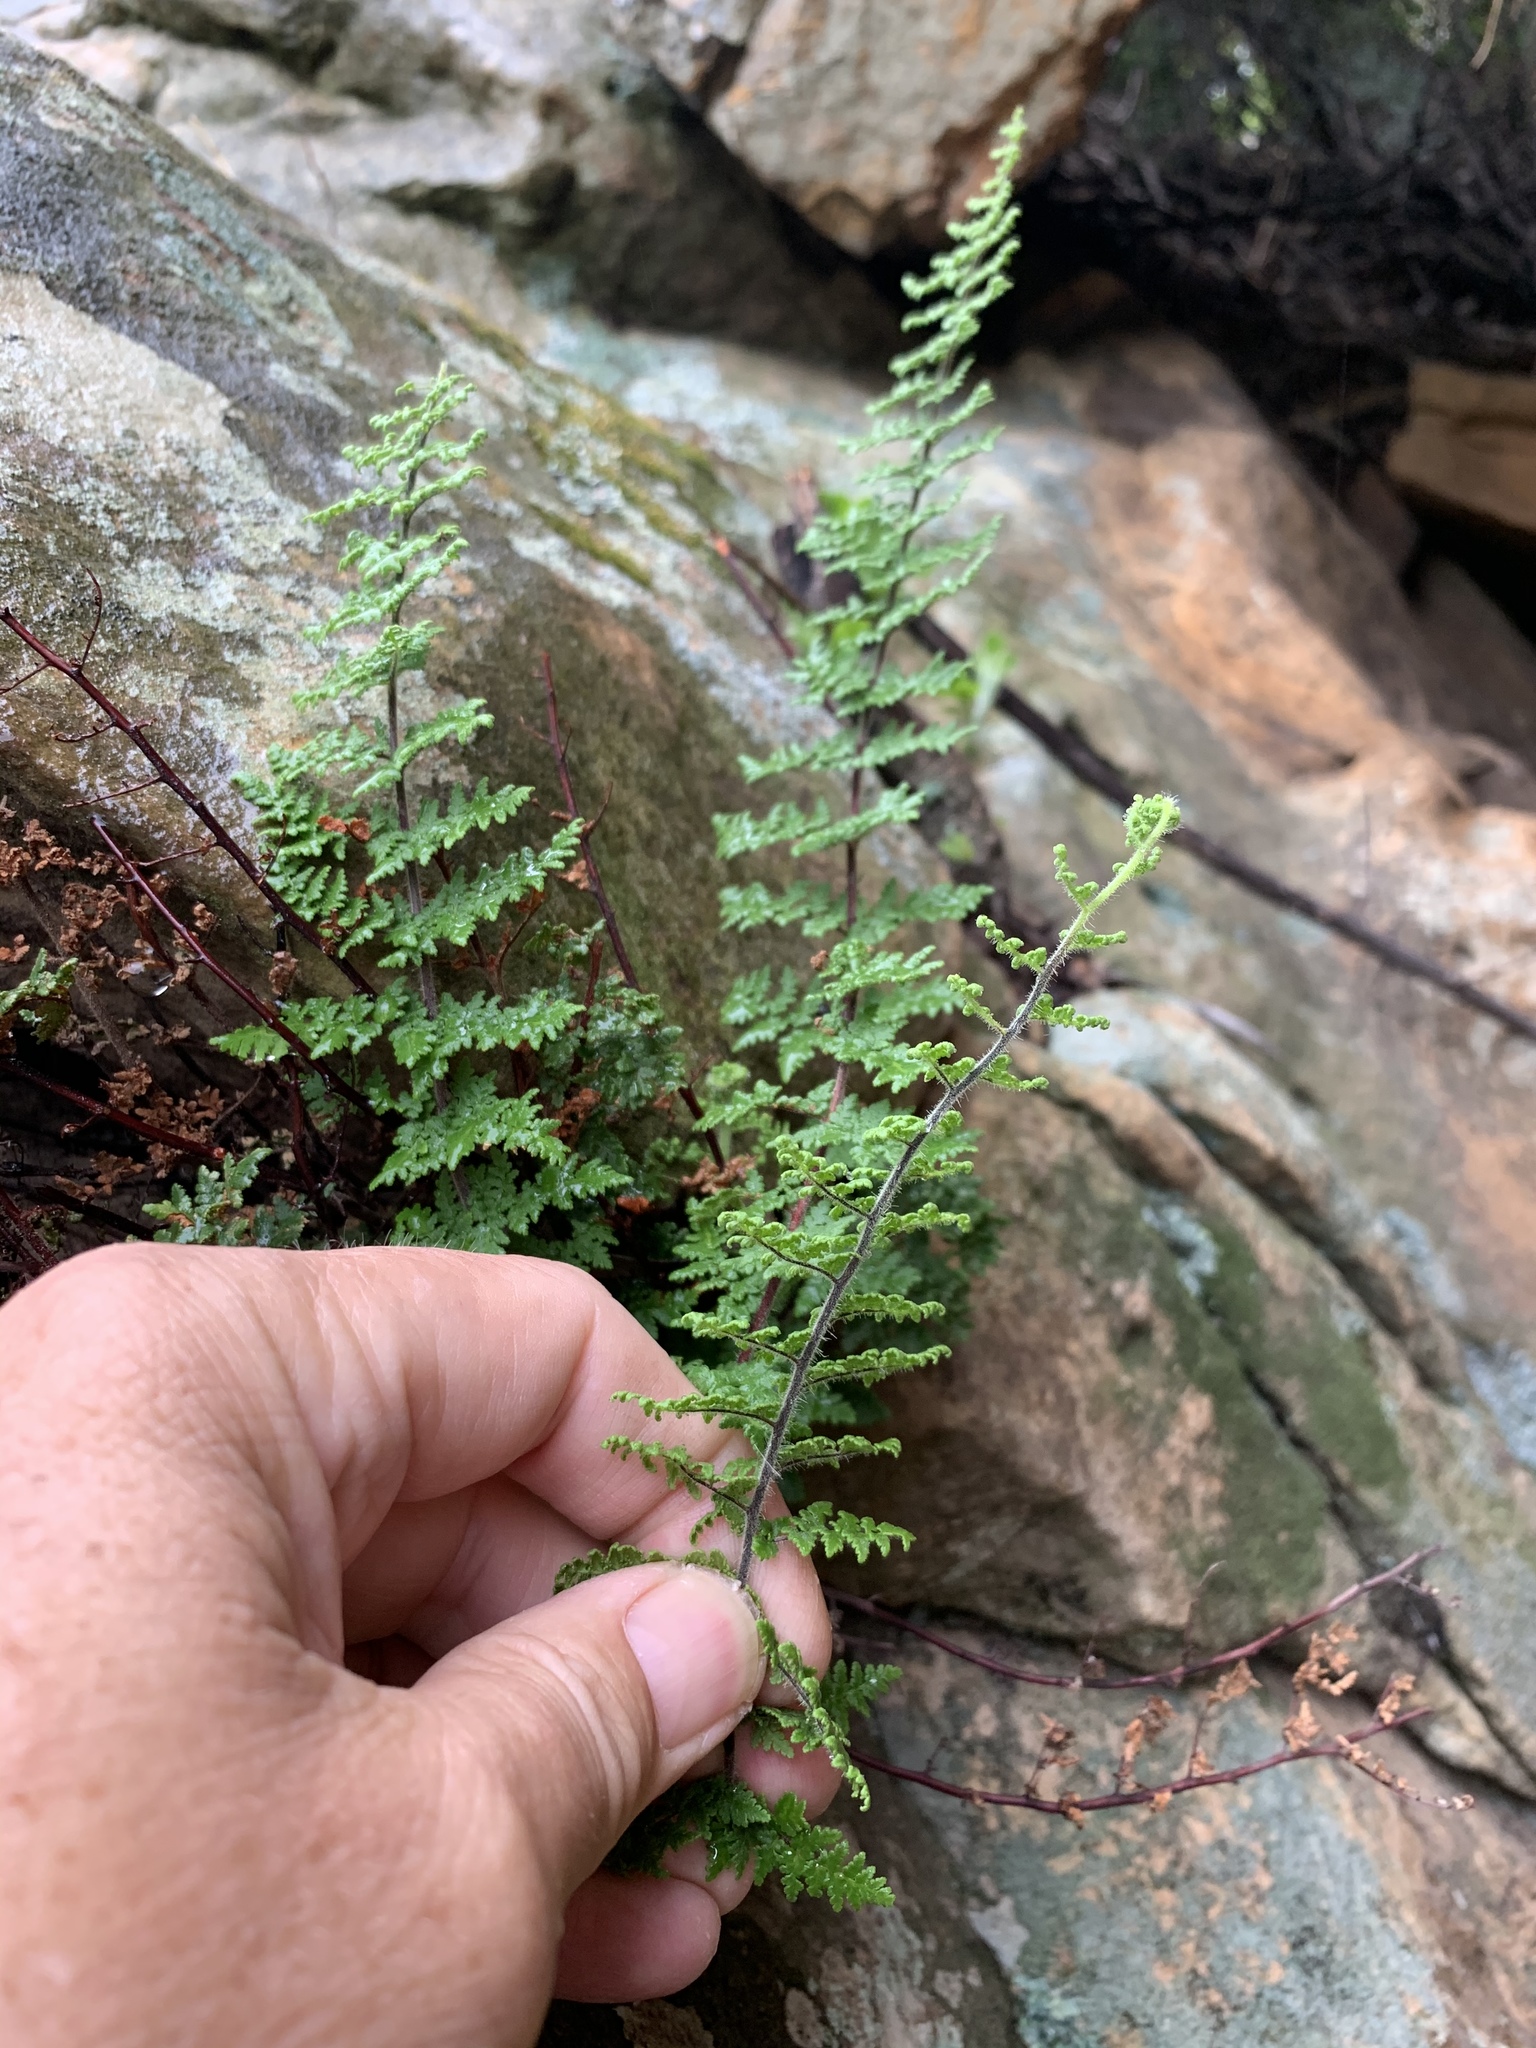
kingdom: Plantae
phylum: Tracheophyta
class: Polypodiopsida
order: Polypodiales
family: Pteridaceae
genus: Cheilanthes
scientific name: Cheilanthes hirta
